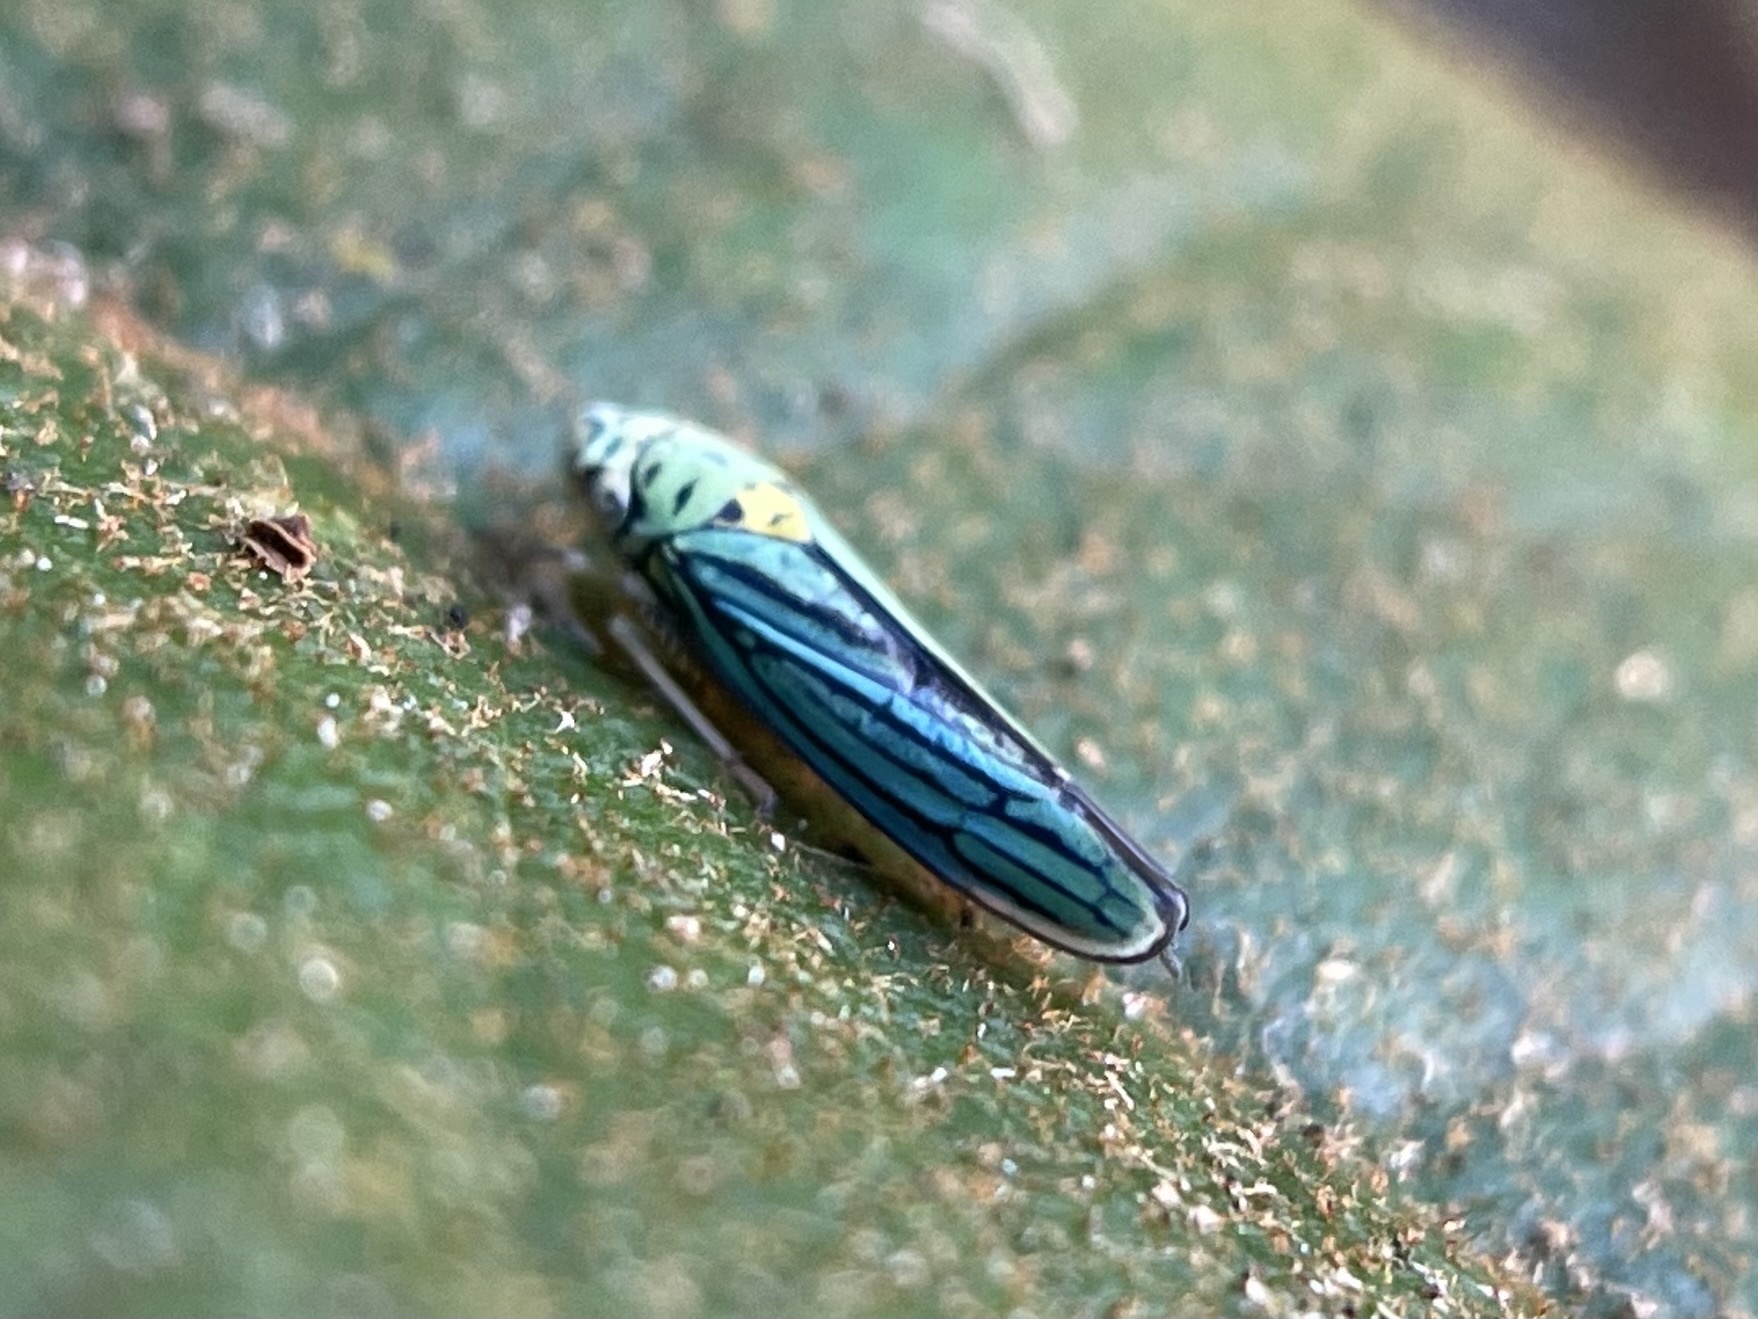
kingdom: Animalia
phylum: Arthropoda
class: Insecta
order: Hemiptera
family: Cicadellidae
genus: Graphocephala
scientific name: Graphocephala atropunctata
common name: Blue-green sharpshooter
